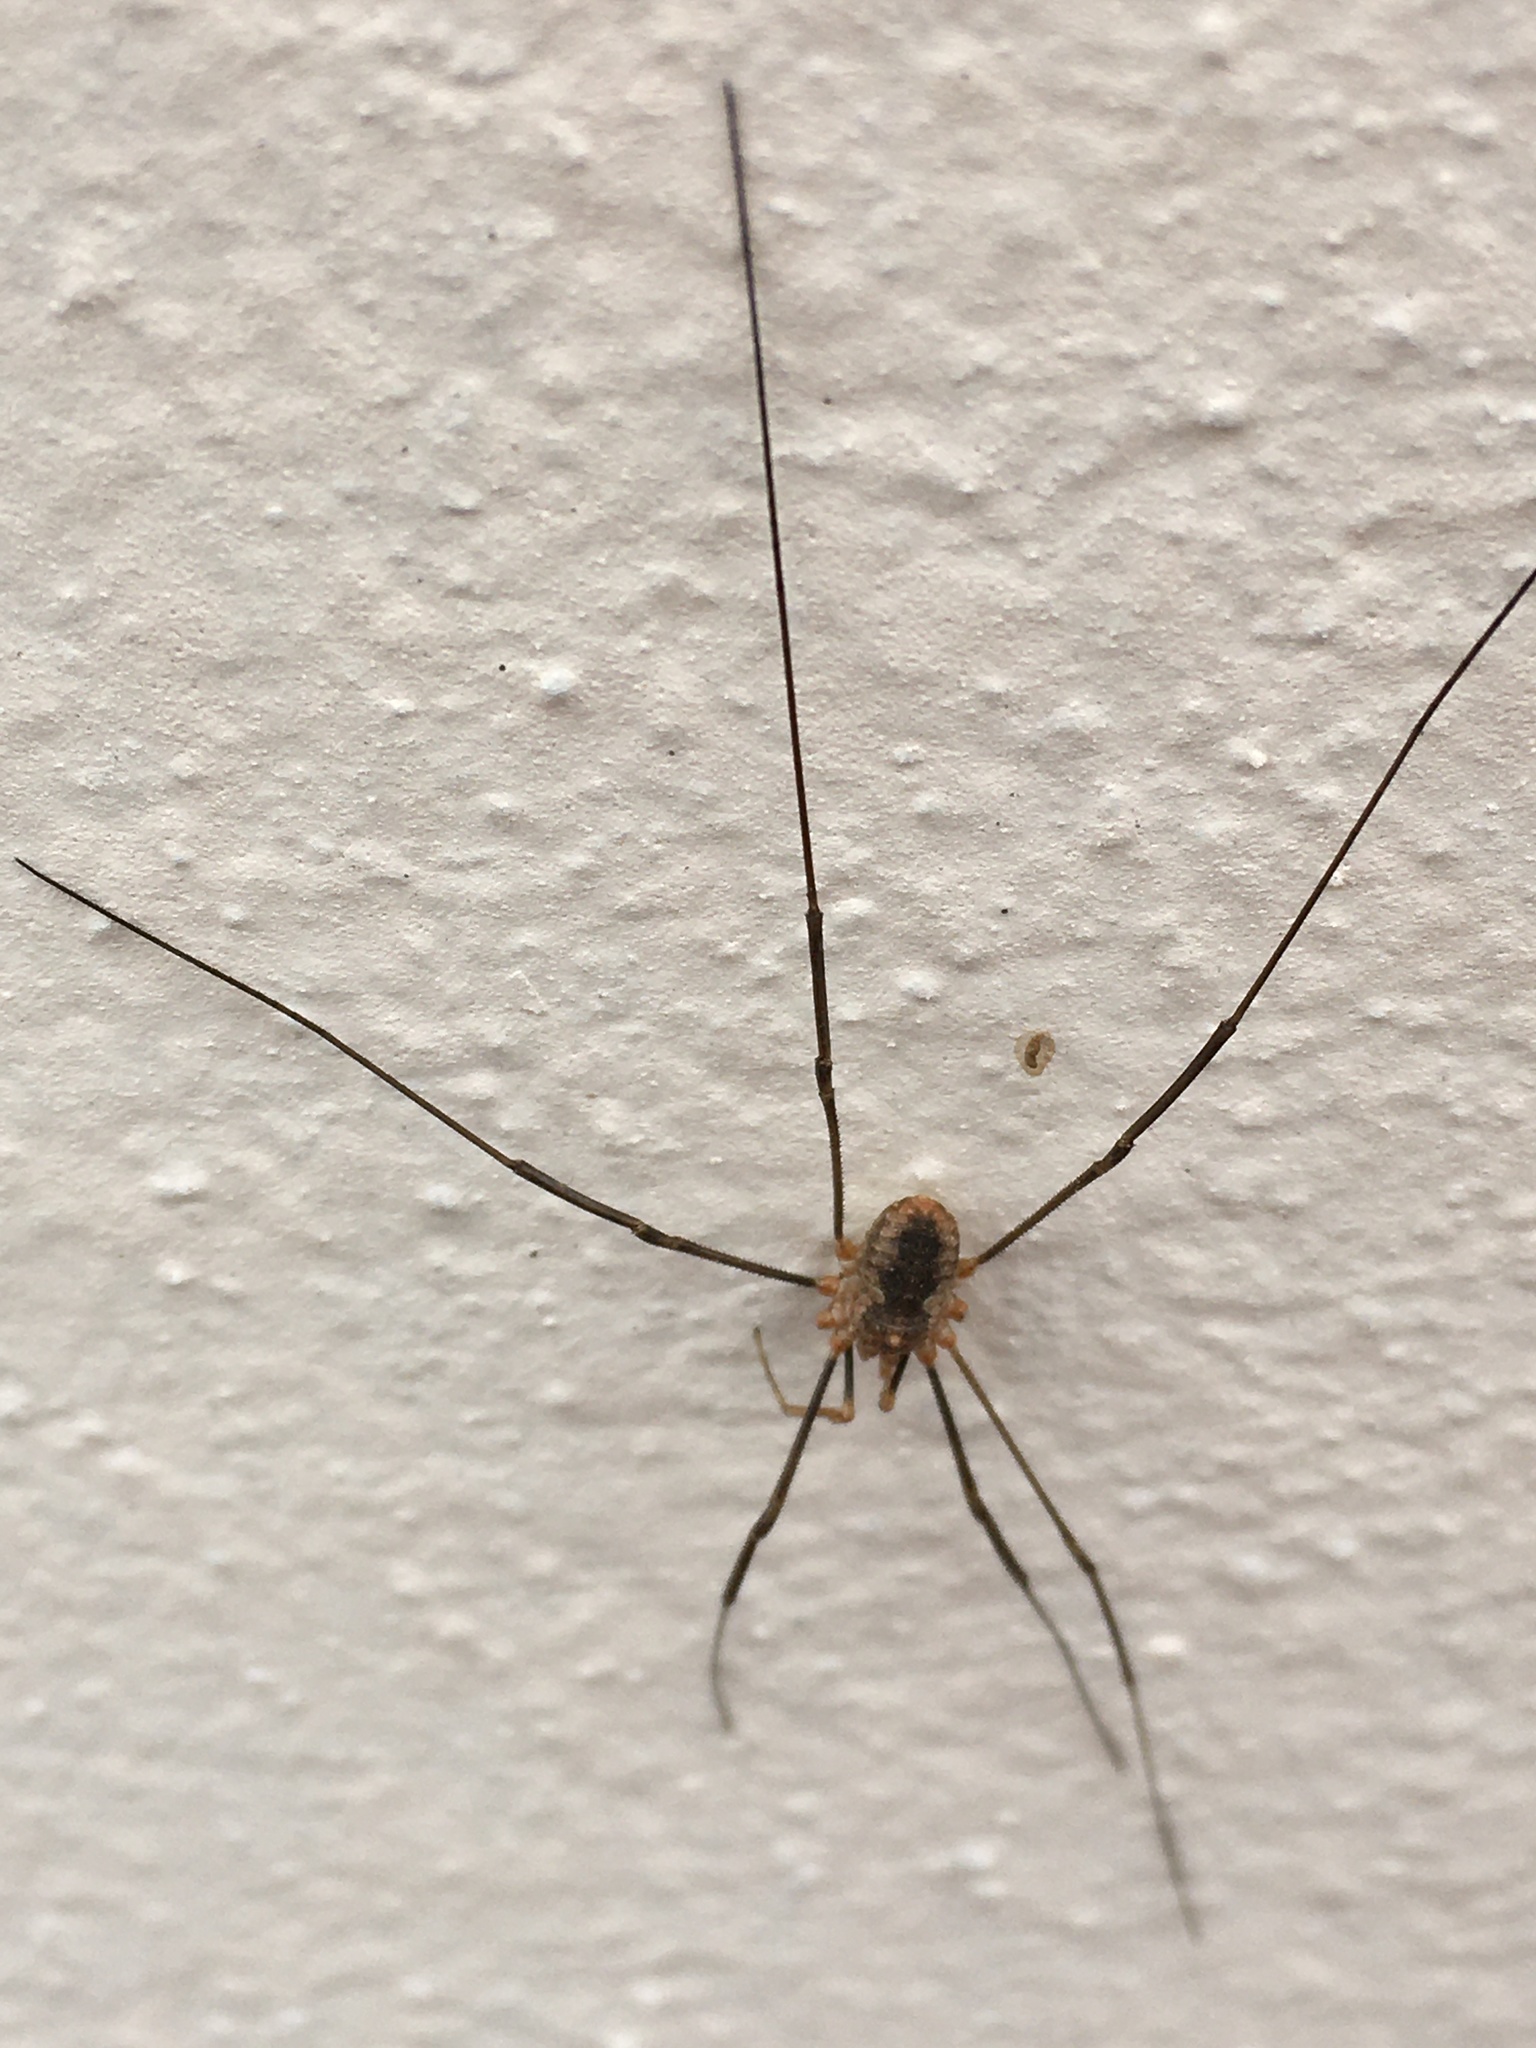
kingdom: Animalia
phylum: Arthropoda
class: Arachnida
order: Opiliones
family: Phalangiidae
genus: Phalangium
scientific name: Phalangium opilio
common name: Daddy longleg
